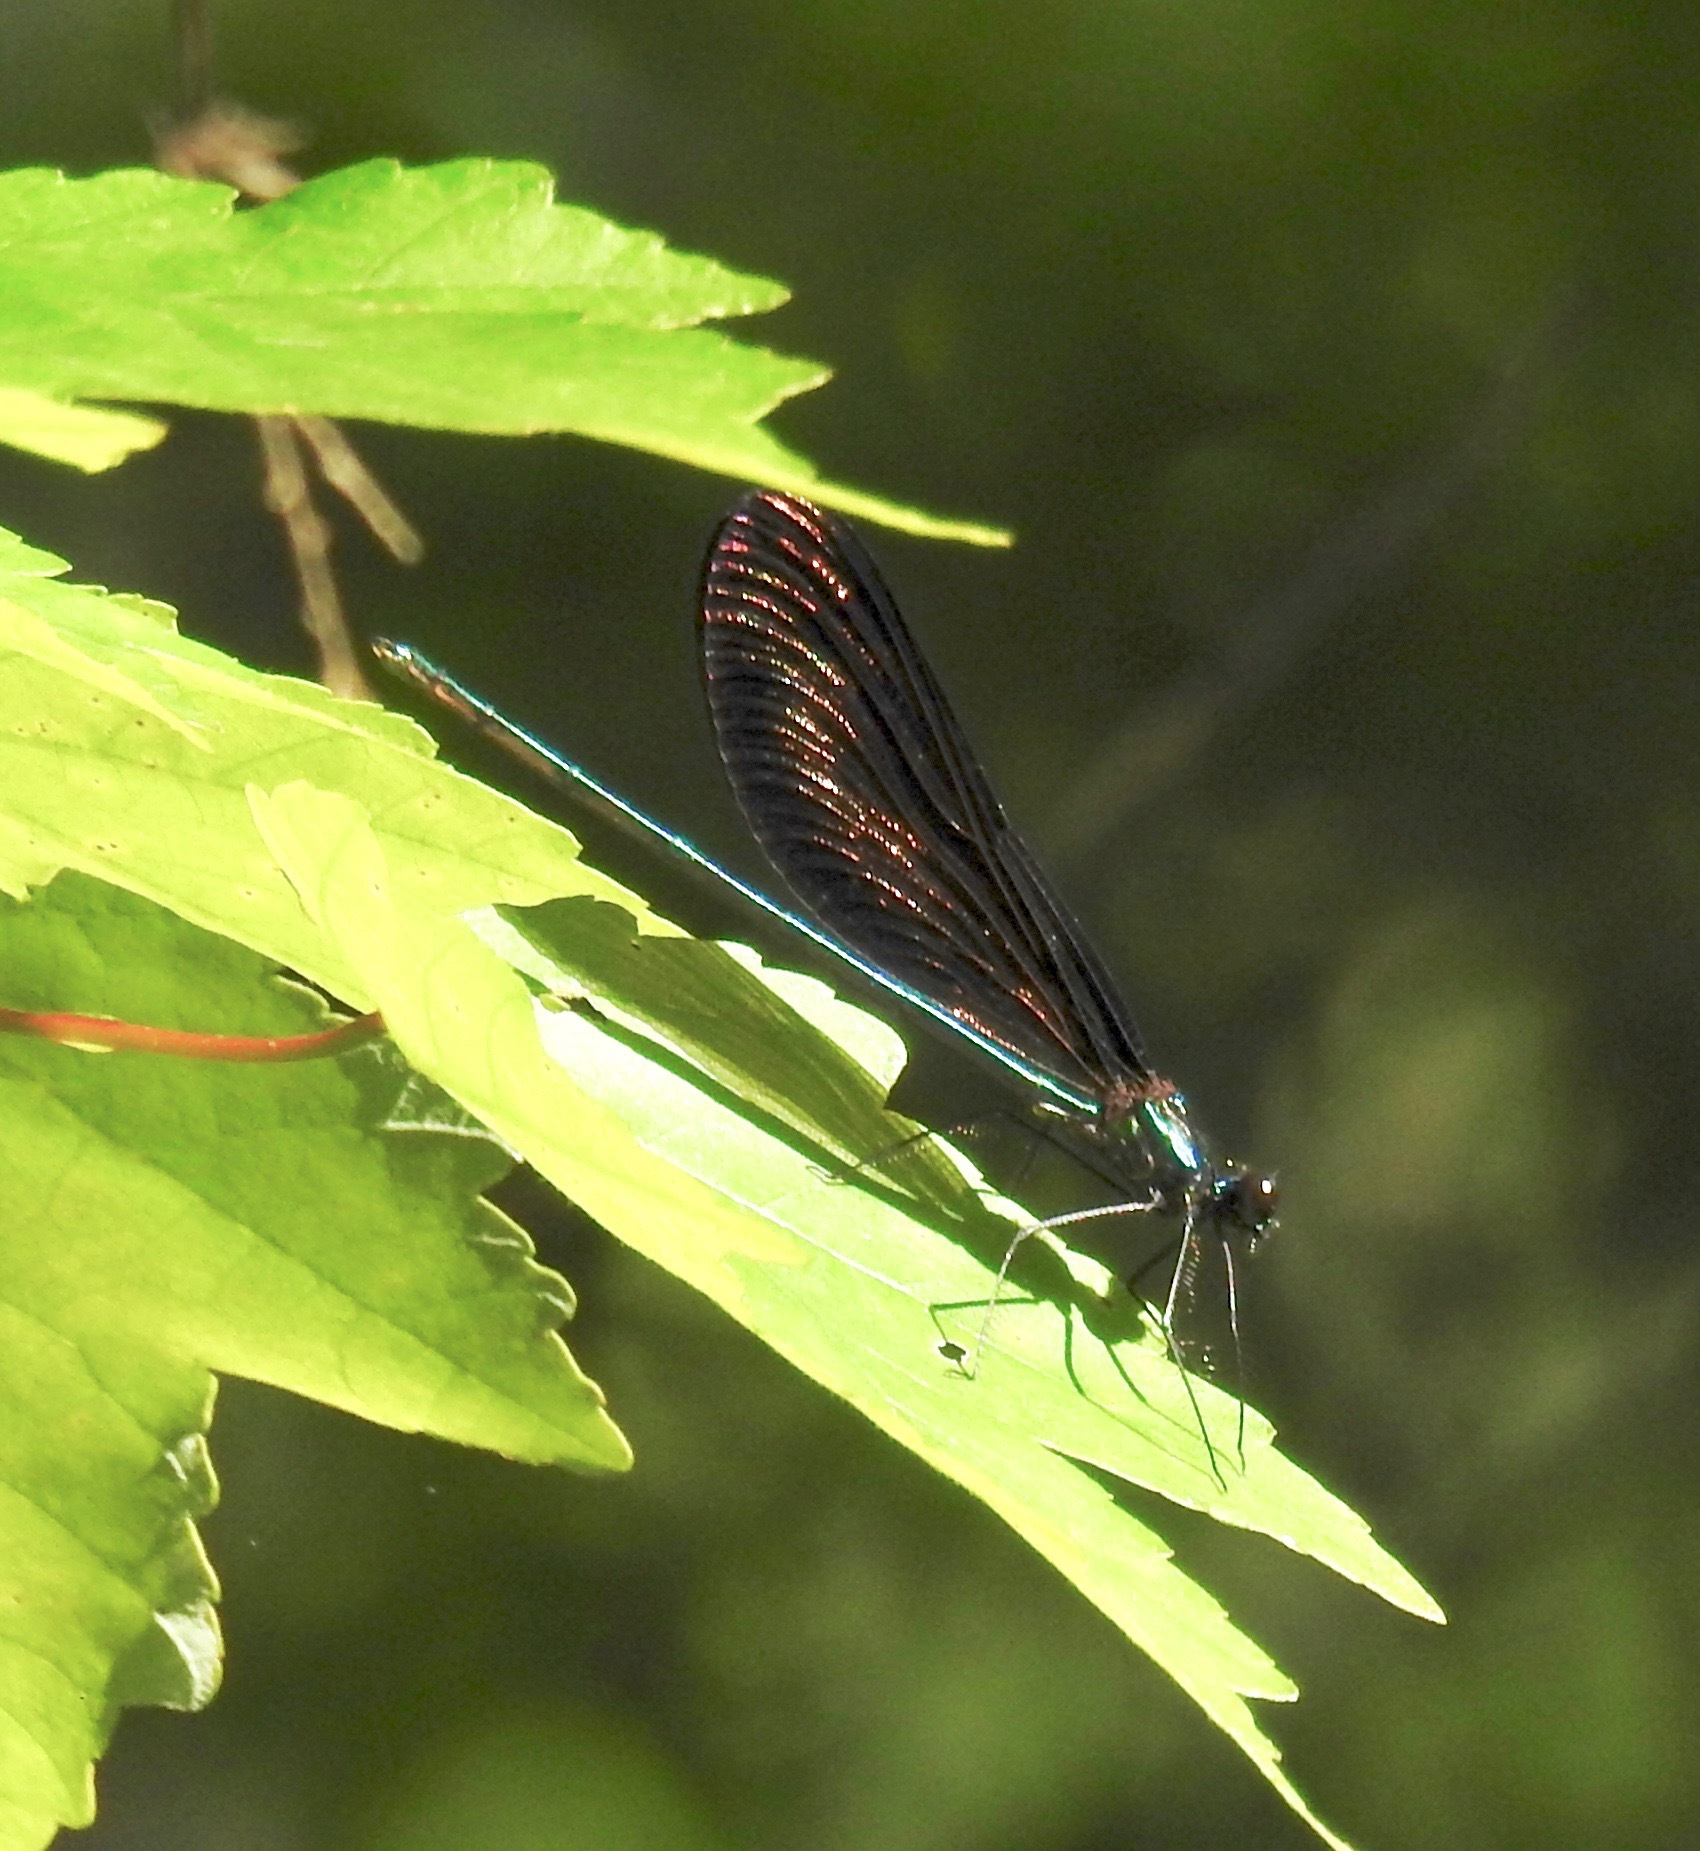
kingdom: Animalia
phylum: Arthropoda
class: Insecta
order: Odonata
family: Calopterygidae
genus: Calopteryx
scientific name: Calopteryx maculata
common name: Ebony jewelwing
